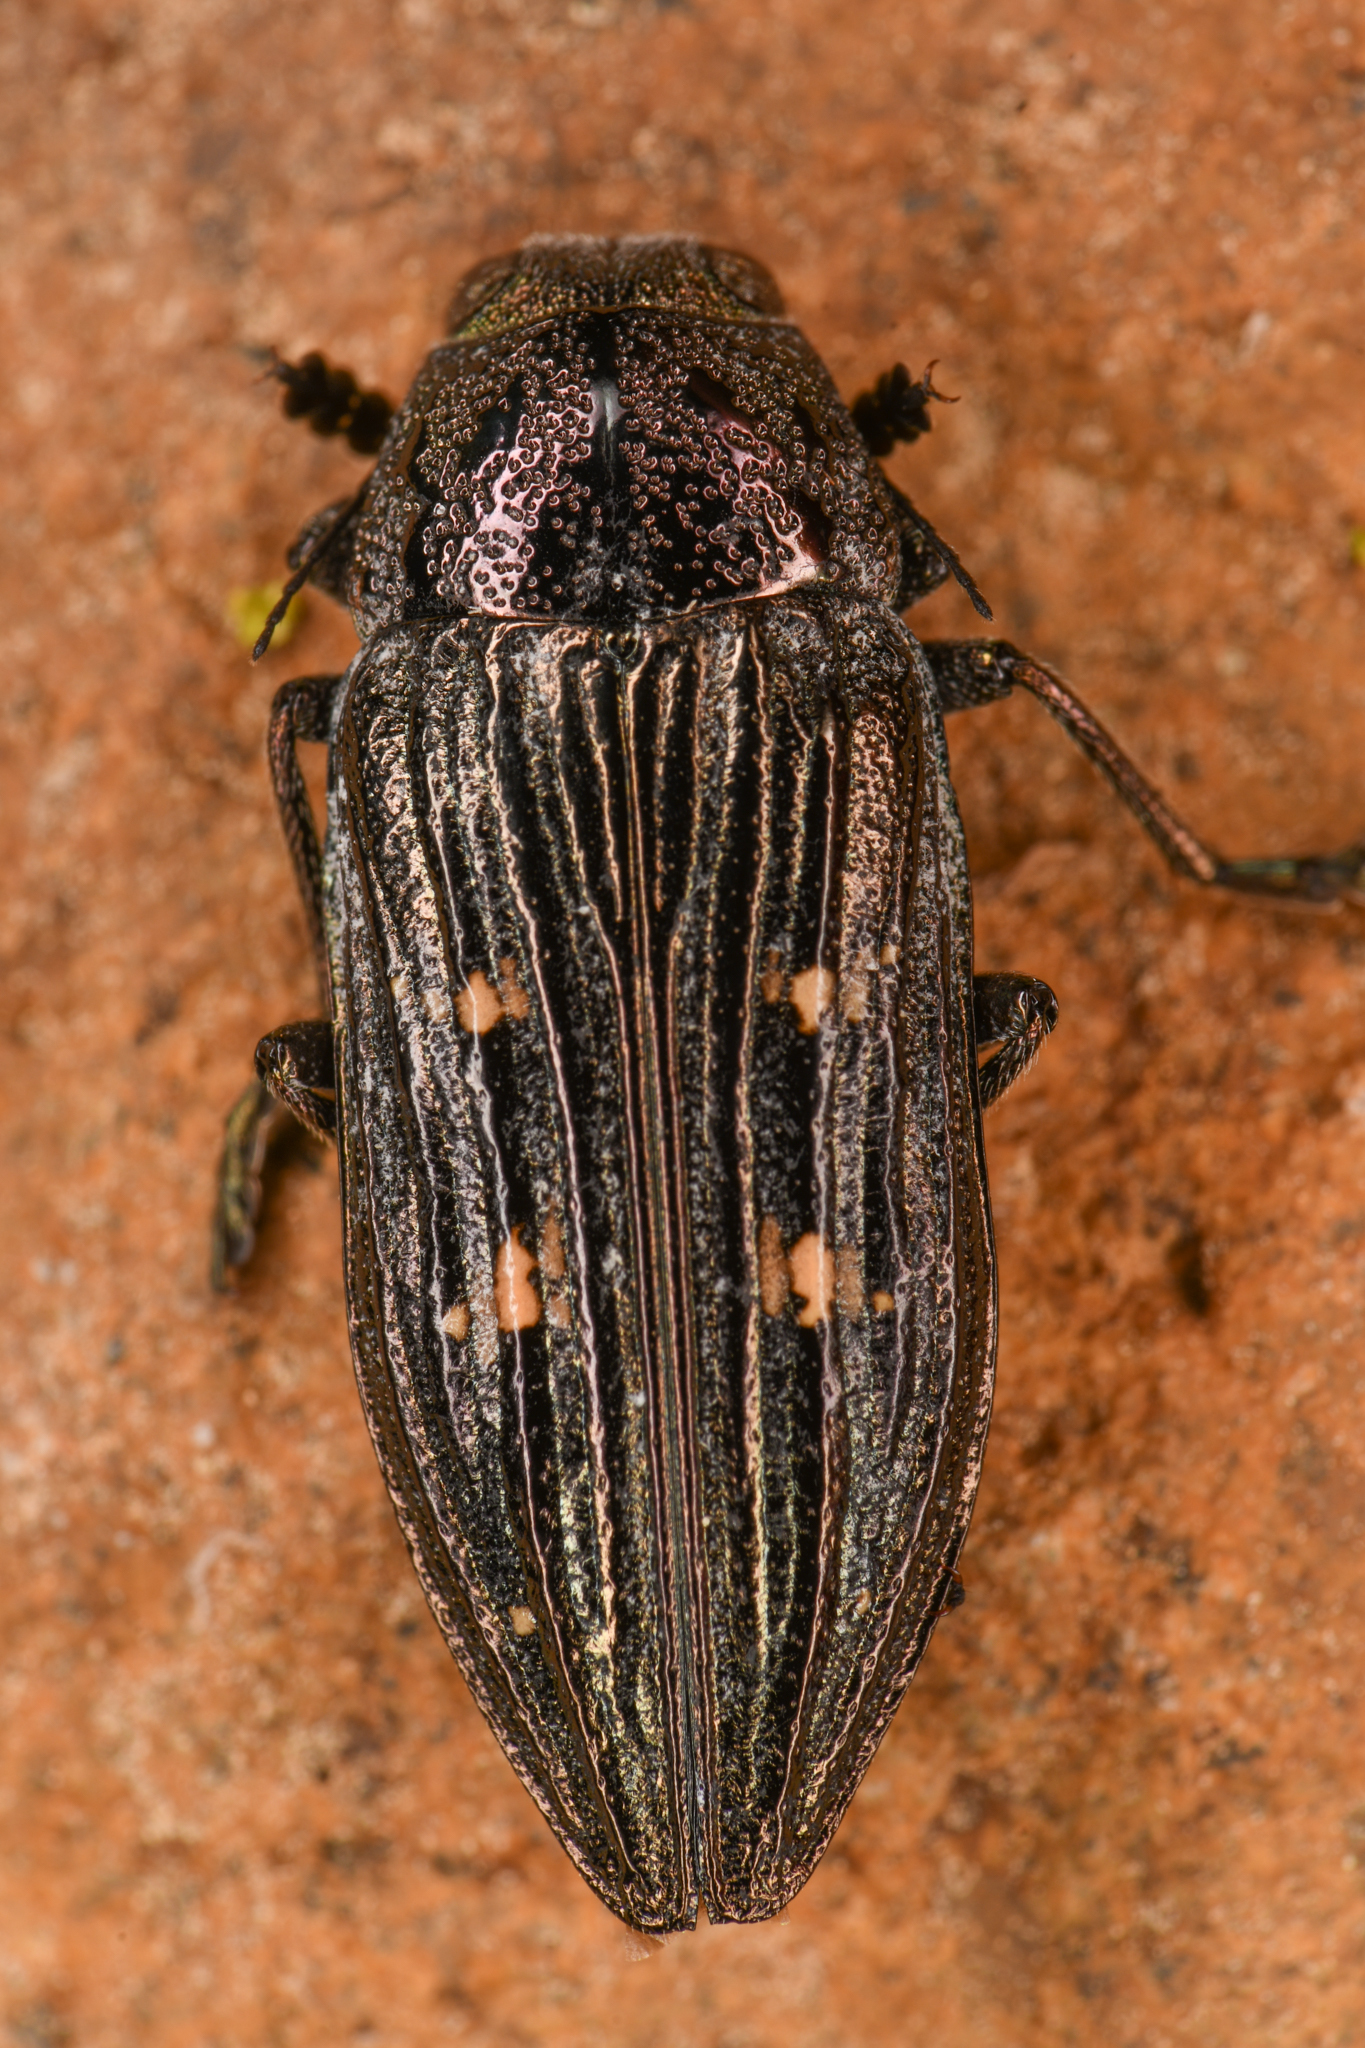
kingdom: Animalia
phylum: Arthropoda
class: Insecta
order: Coleoptera
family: Buprestidae
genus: Buprestis
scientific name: Buprestis nutalli
